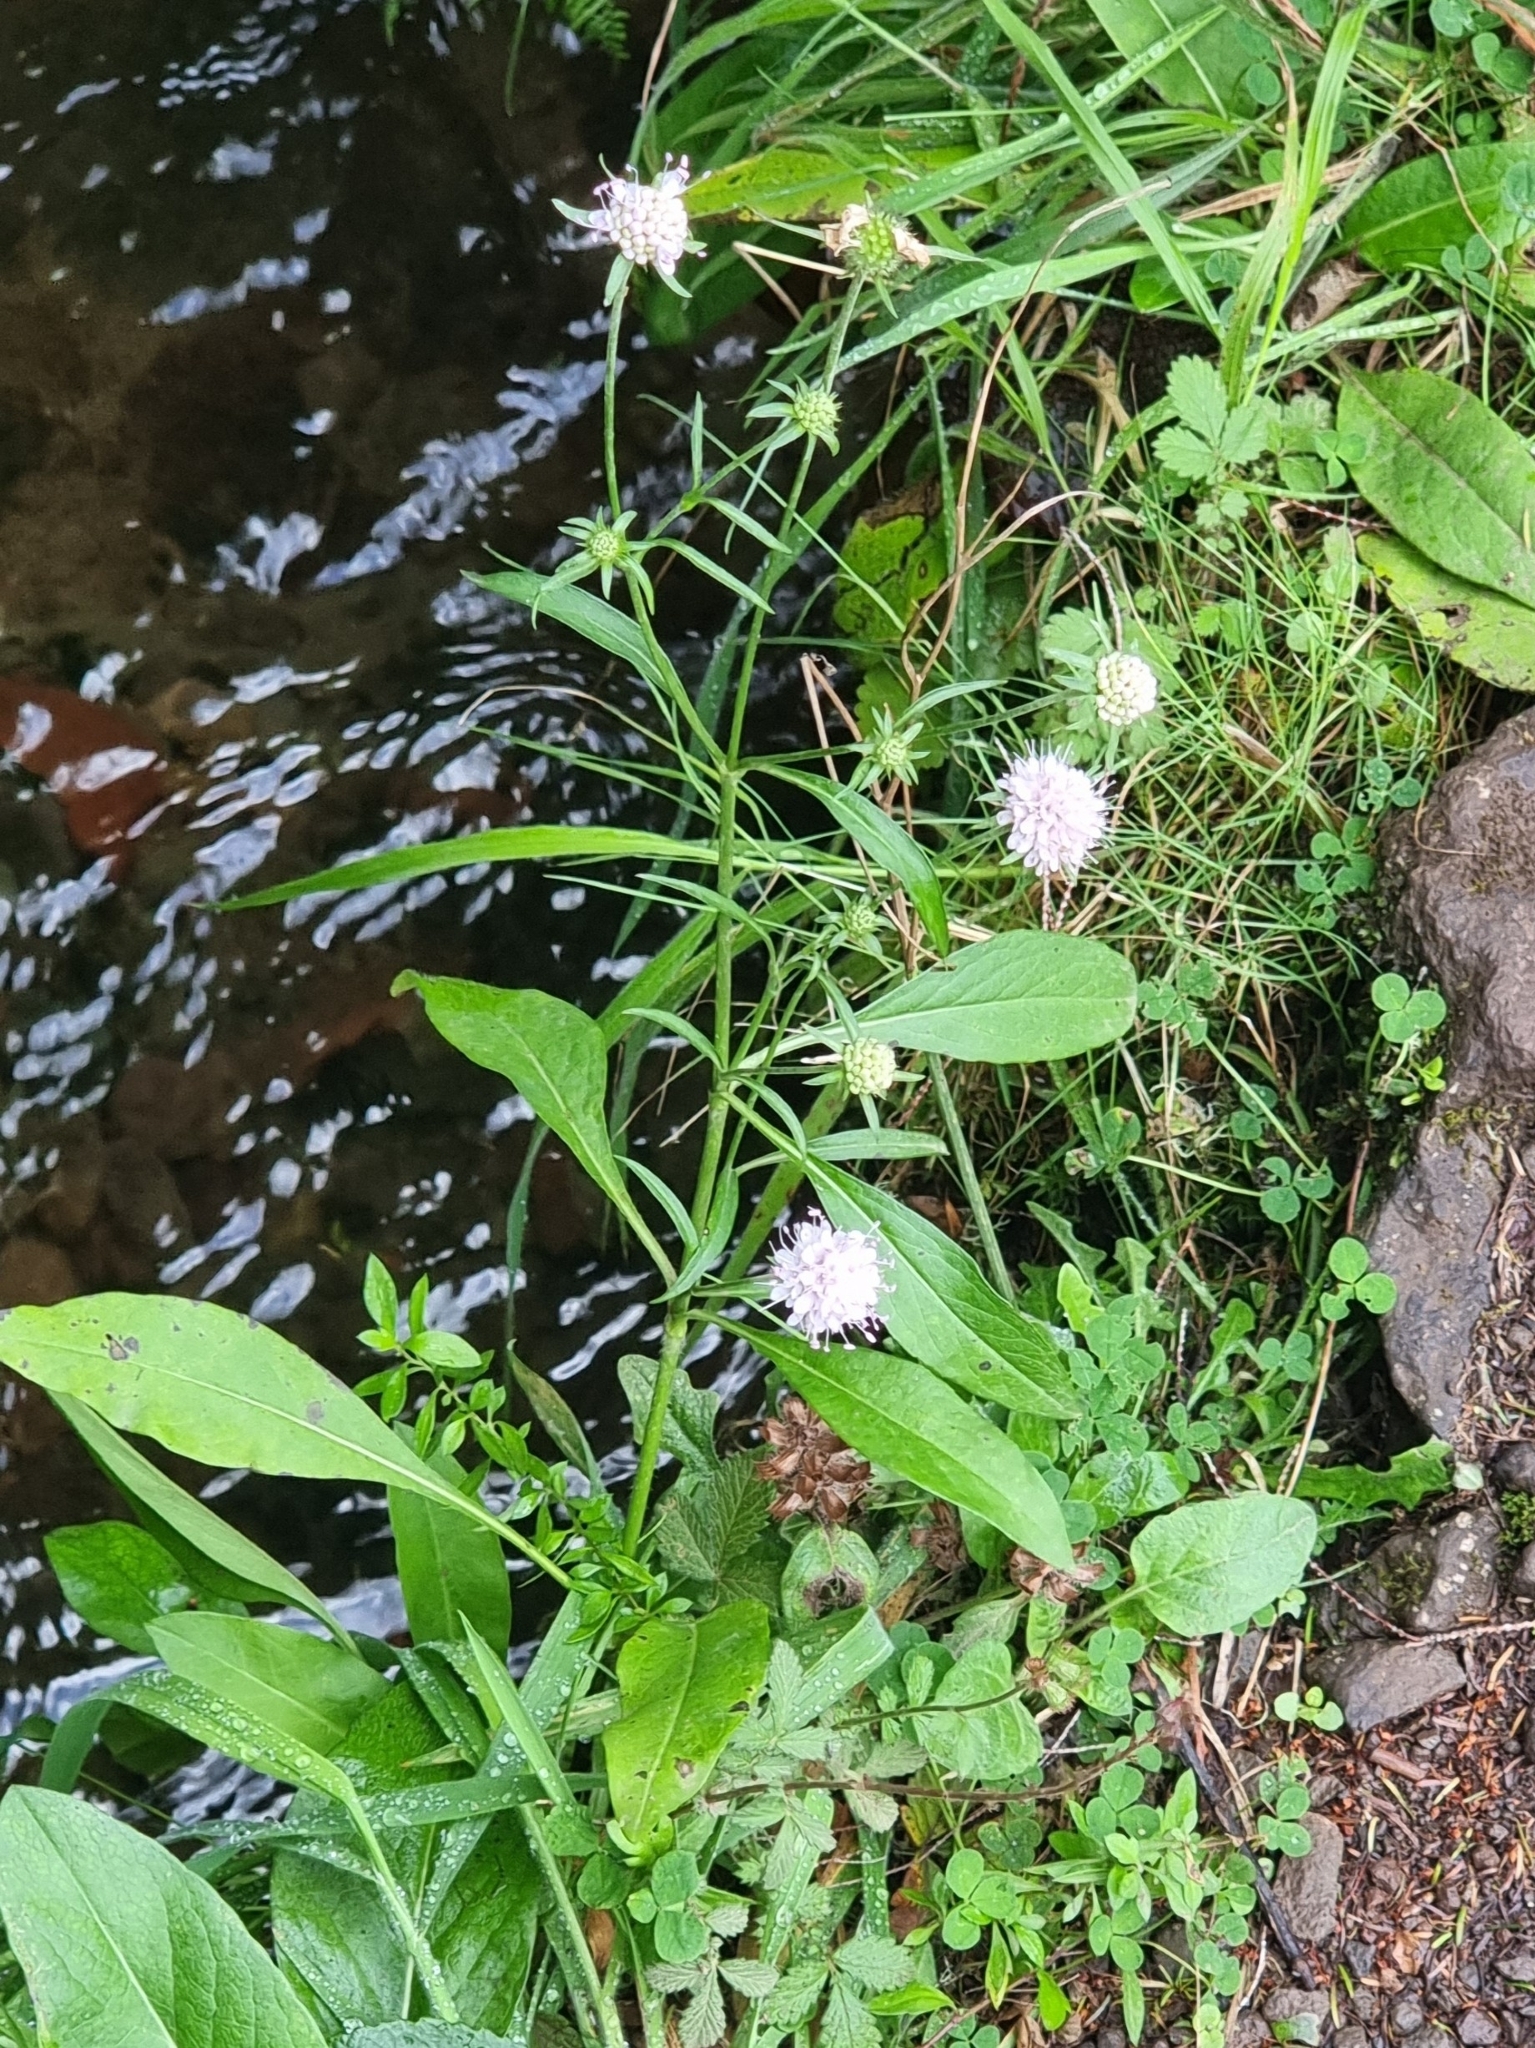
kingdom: Plantae
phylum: Tracheophyta
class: Magnoliopsida
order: Dipsacales
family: Caprifoliaceae
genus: Succisa
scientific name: Succisa pratensis
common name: Devil's-bit
